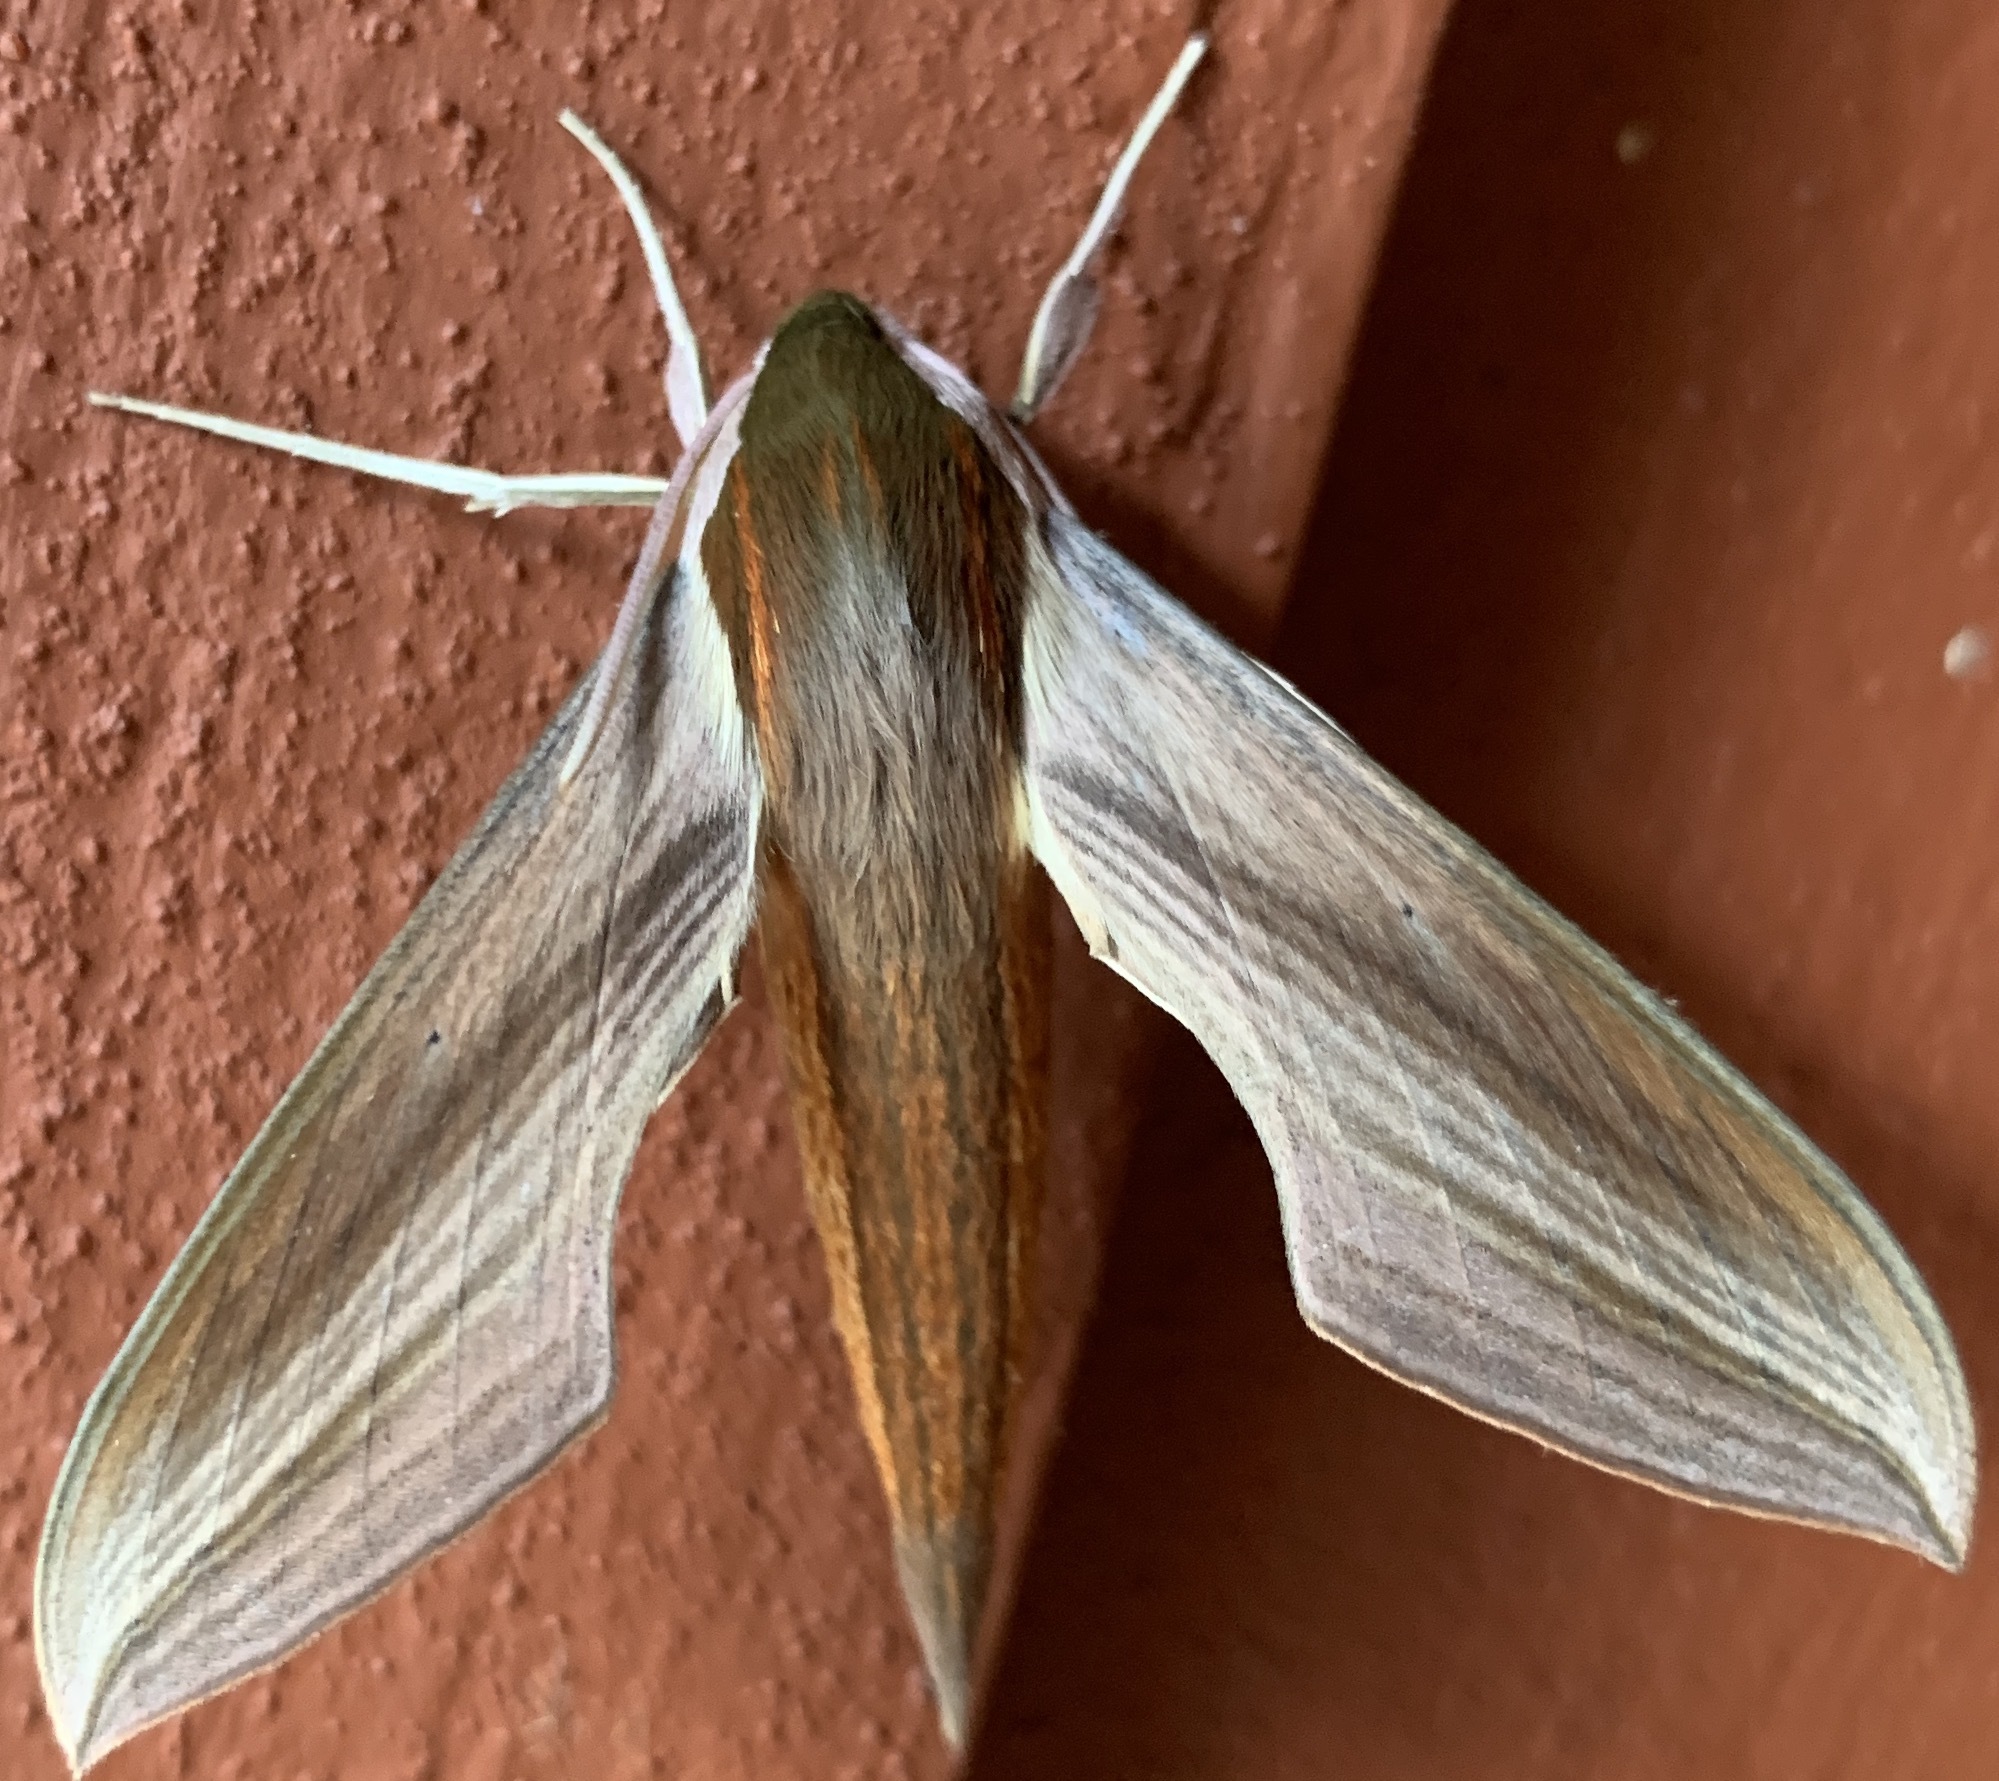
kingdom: Animalia
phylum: Arthropoda
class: Insecta
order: Lepidoptera
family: Sphingidae
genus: Xylophanes
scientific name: Xylophanes tersa
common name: Tersa sphinx
